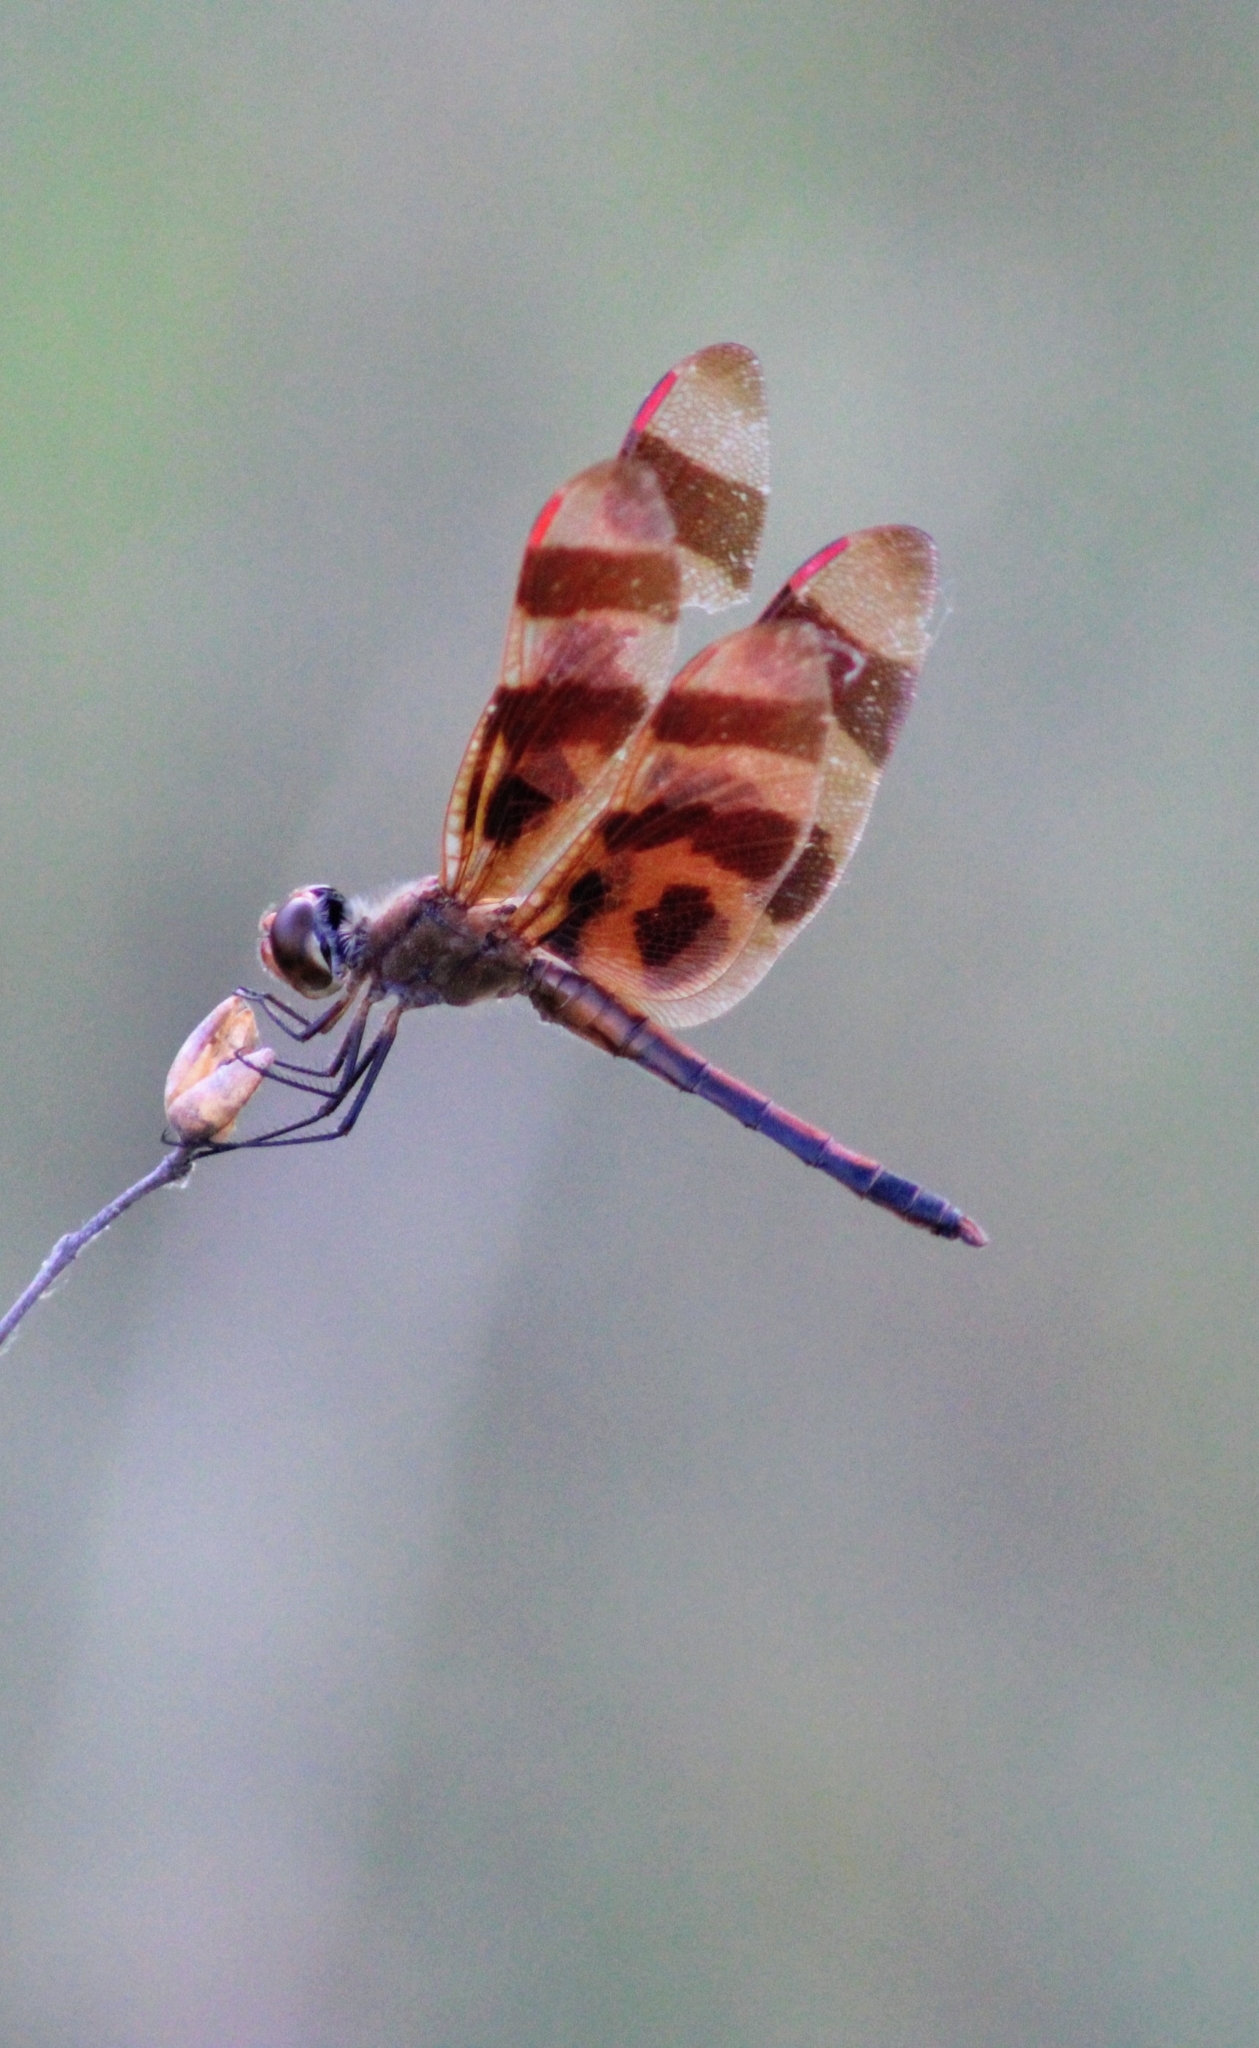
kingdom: Animalia
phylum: Arthropoda
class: Insecta
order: Odonata
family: Libellulidae
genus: Celithemis
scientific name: Celithemis eponina
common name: Halloween pennant
